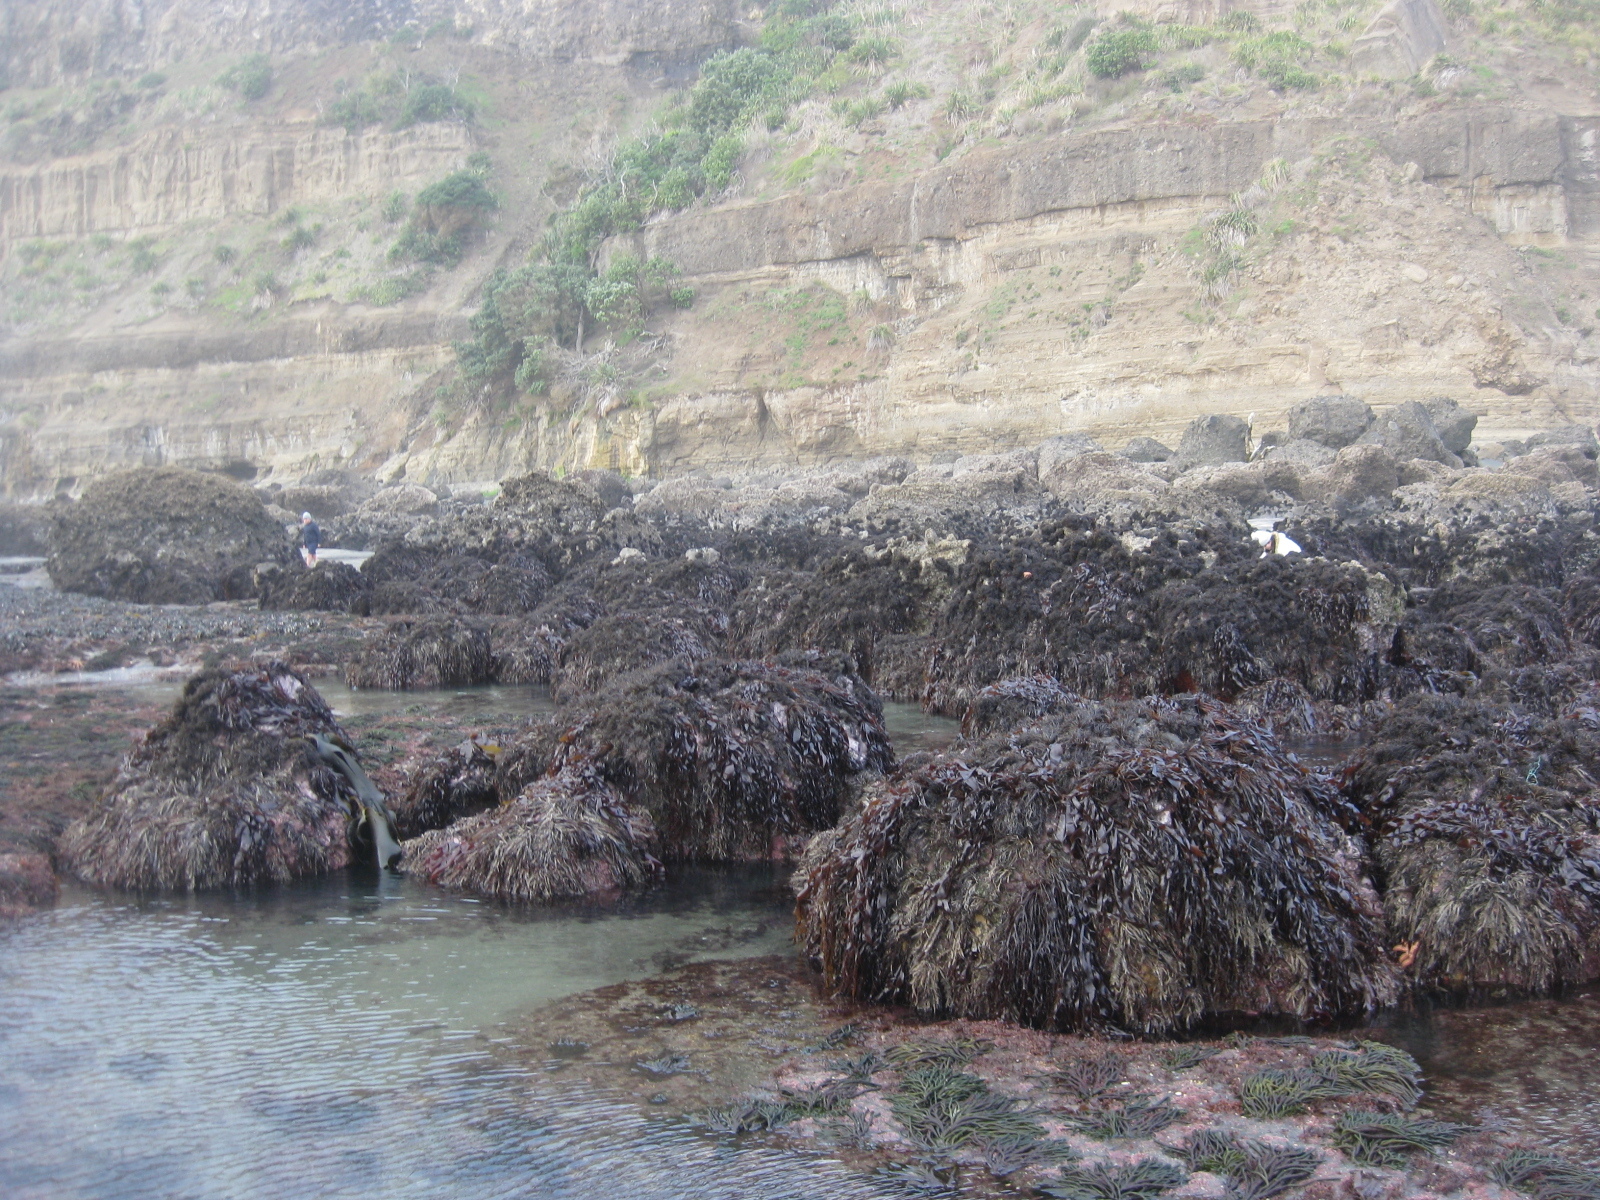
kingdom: Animalia
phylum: Cnidaria
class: Hydrozoa
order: Siphonophorae
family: Physaliidae
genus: Physalia
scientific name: Physalia physalis
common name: Portuguese man-of-war
